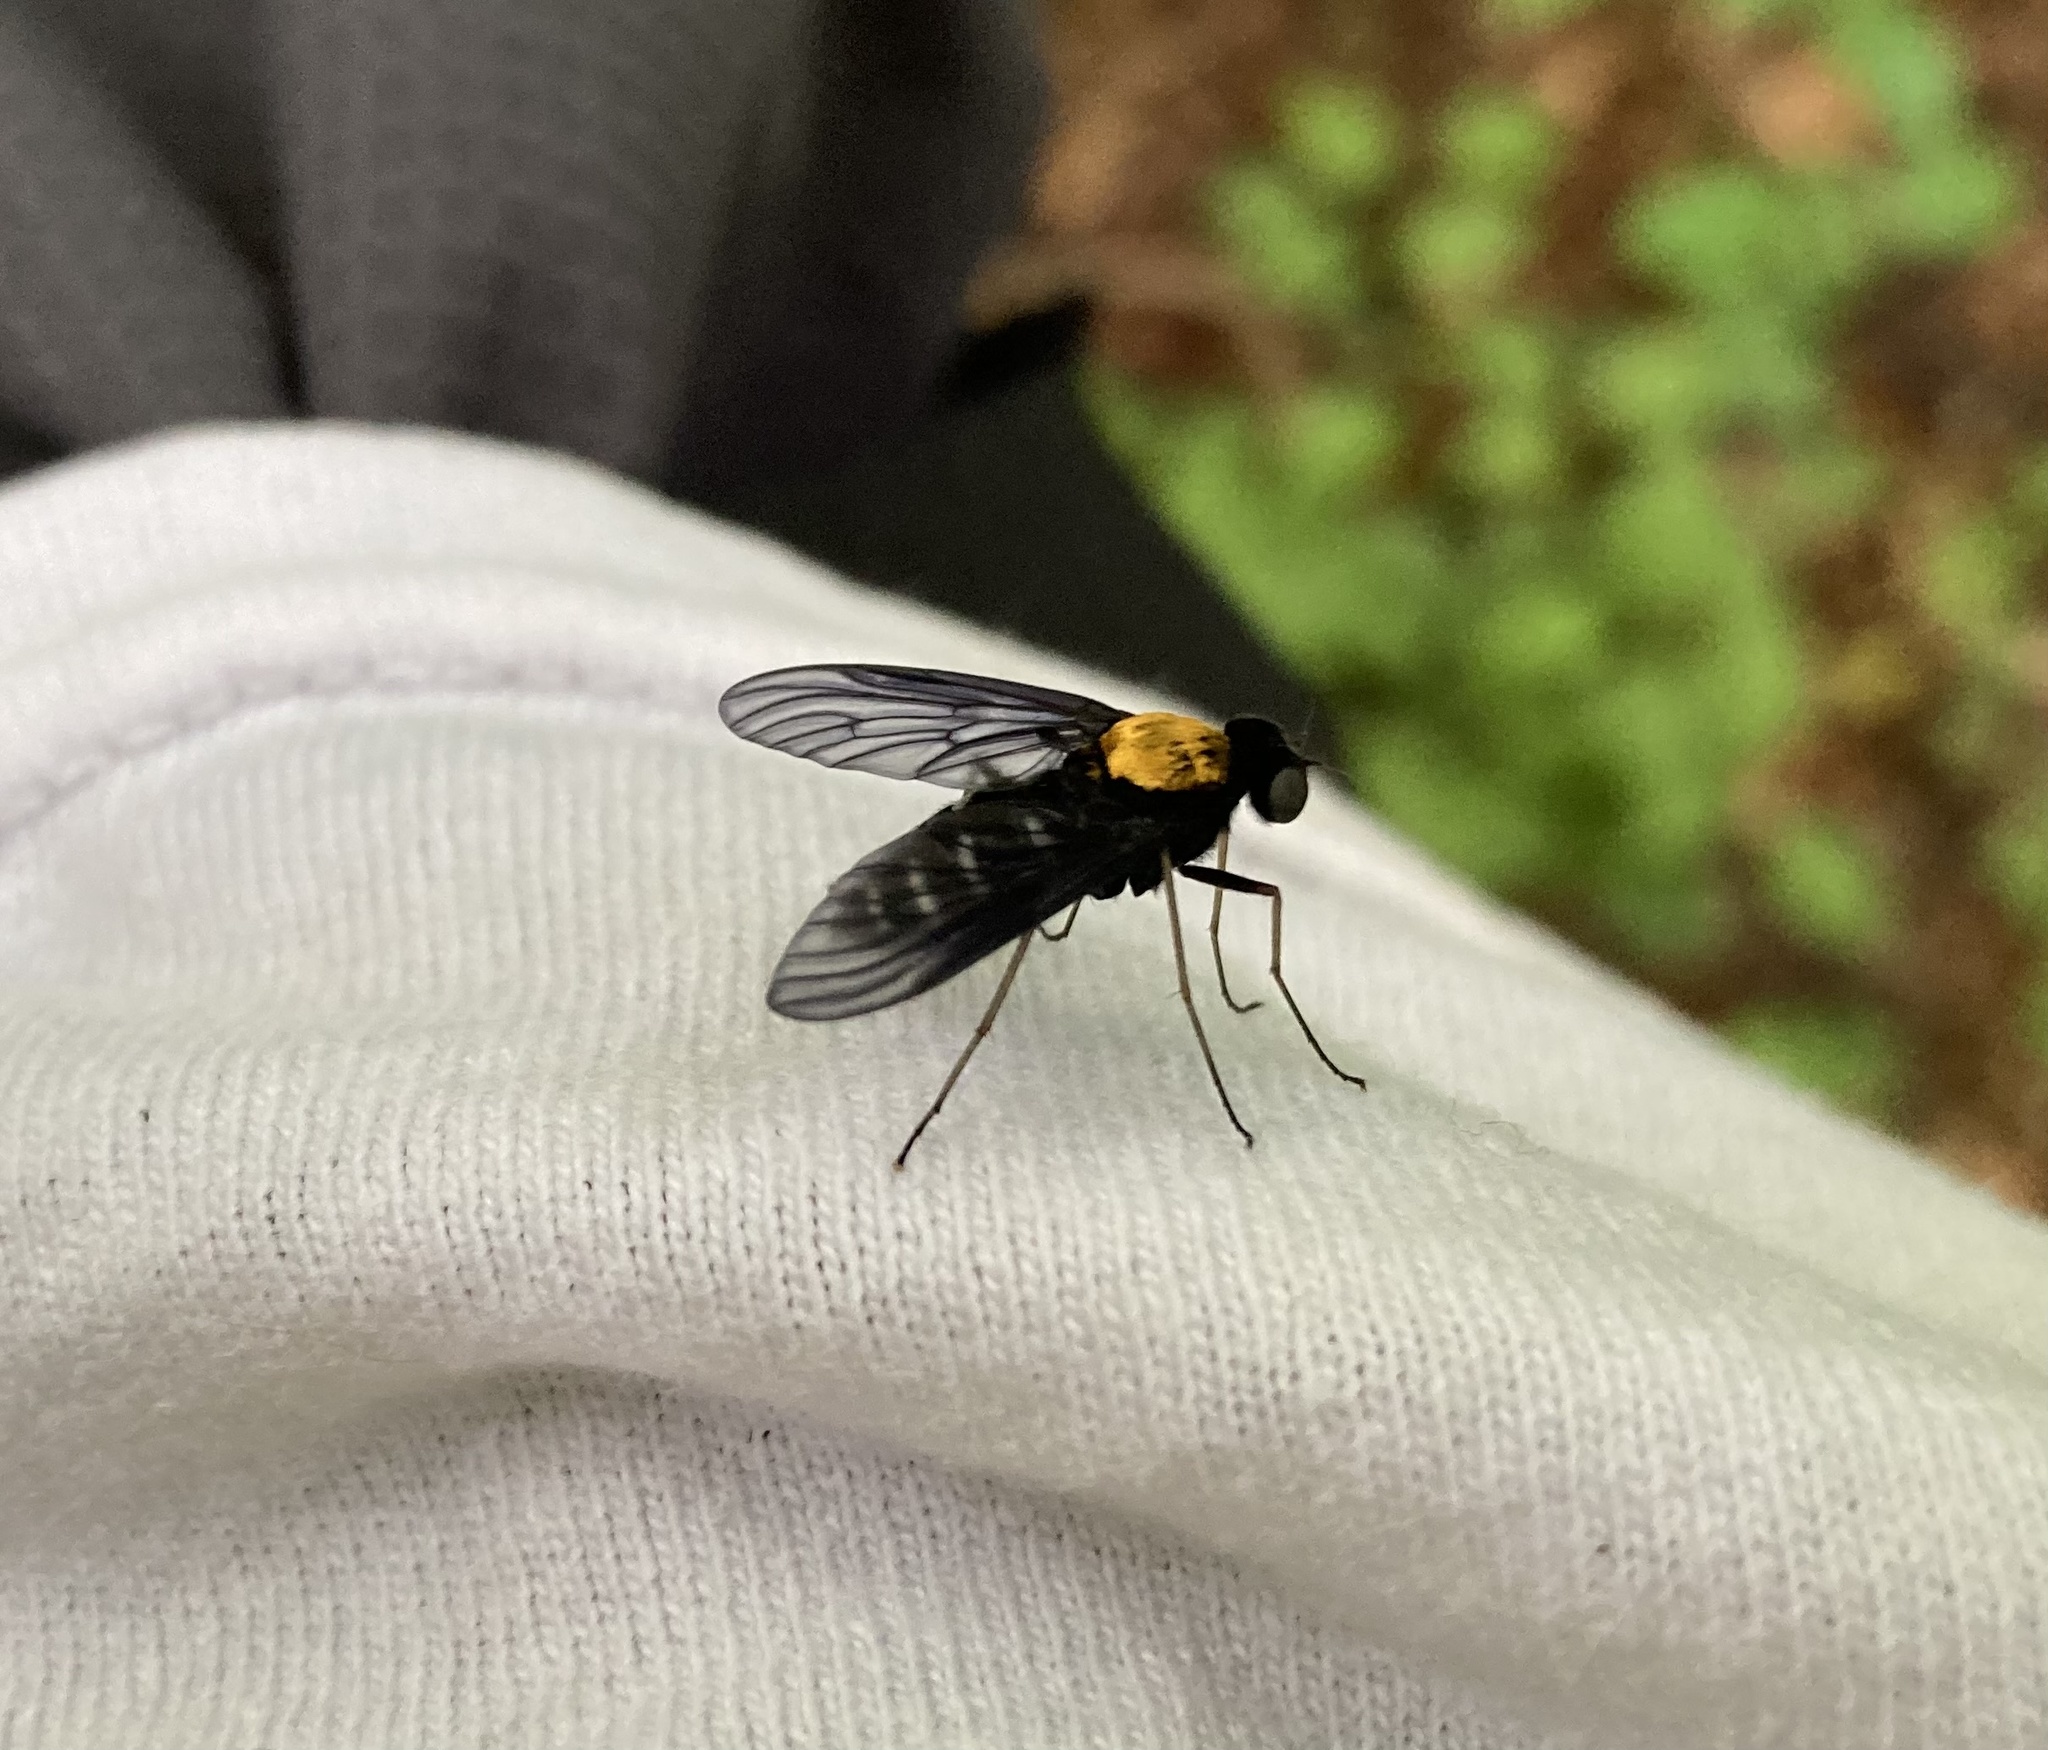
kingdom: Animalia
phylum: Arthropoda
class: Insecta
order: Diptera
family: Rhagionidae
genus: Chrysopilus
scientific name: Chrysopilus thoracicus
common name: Golden-backed snipe fly
